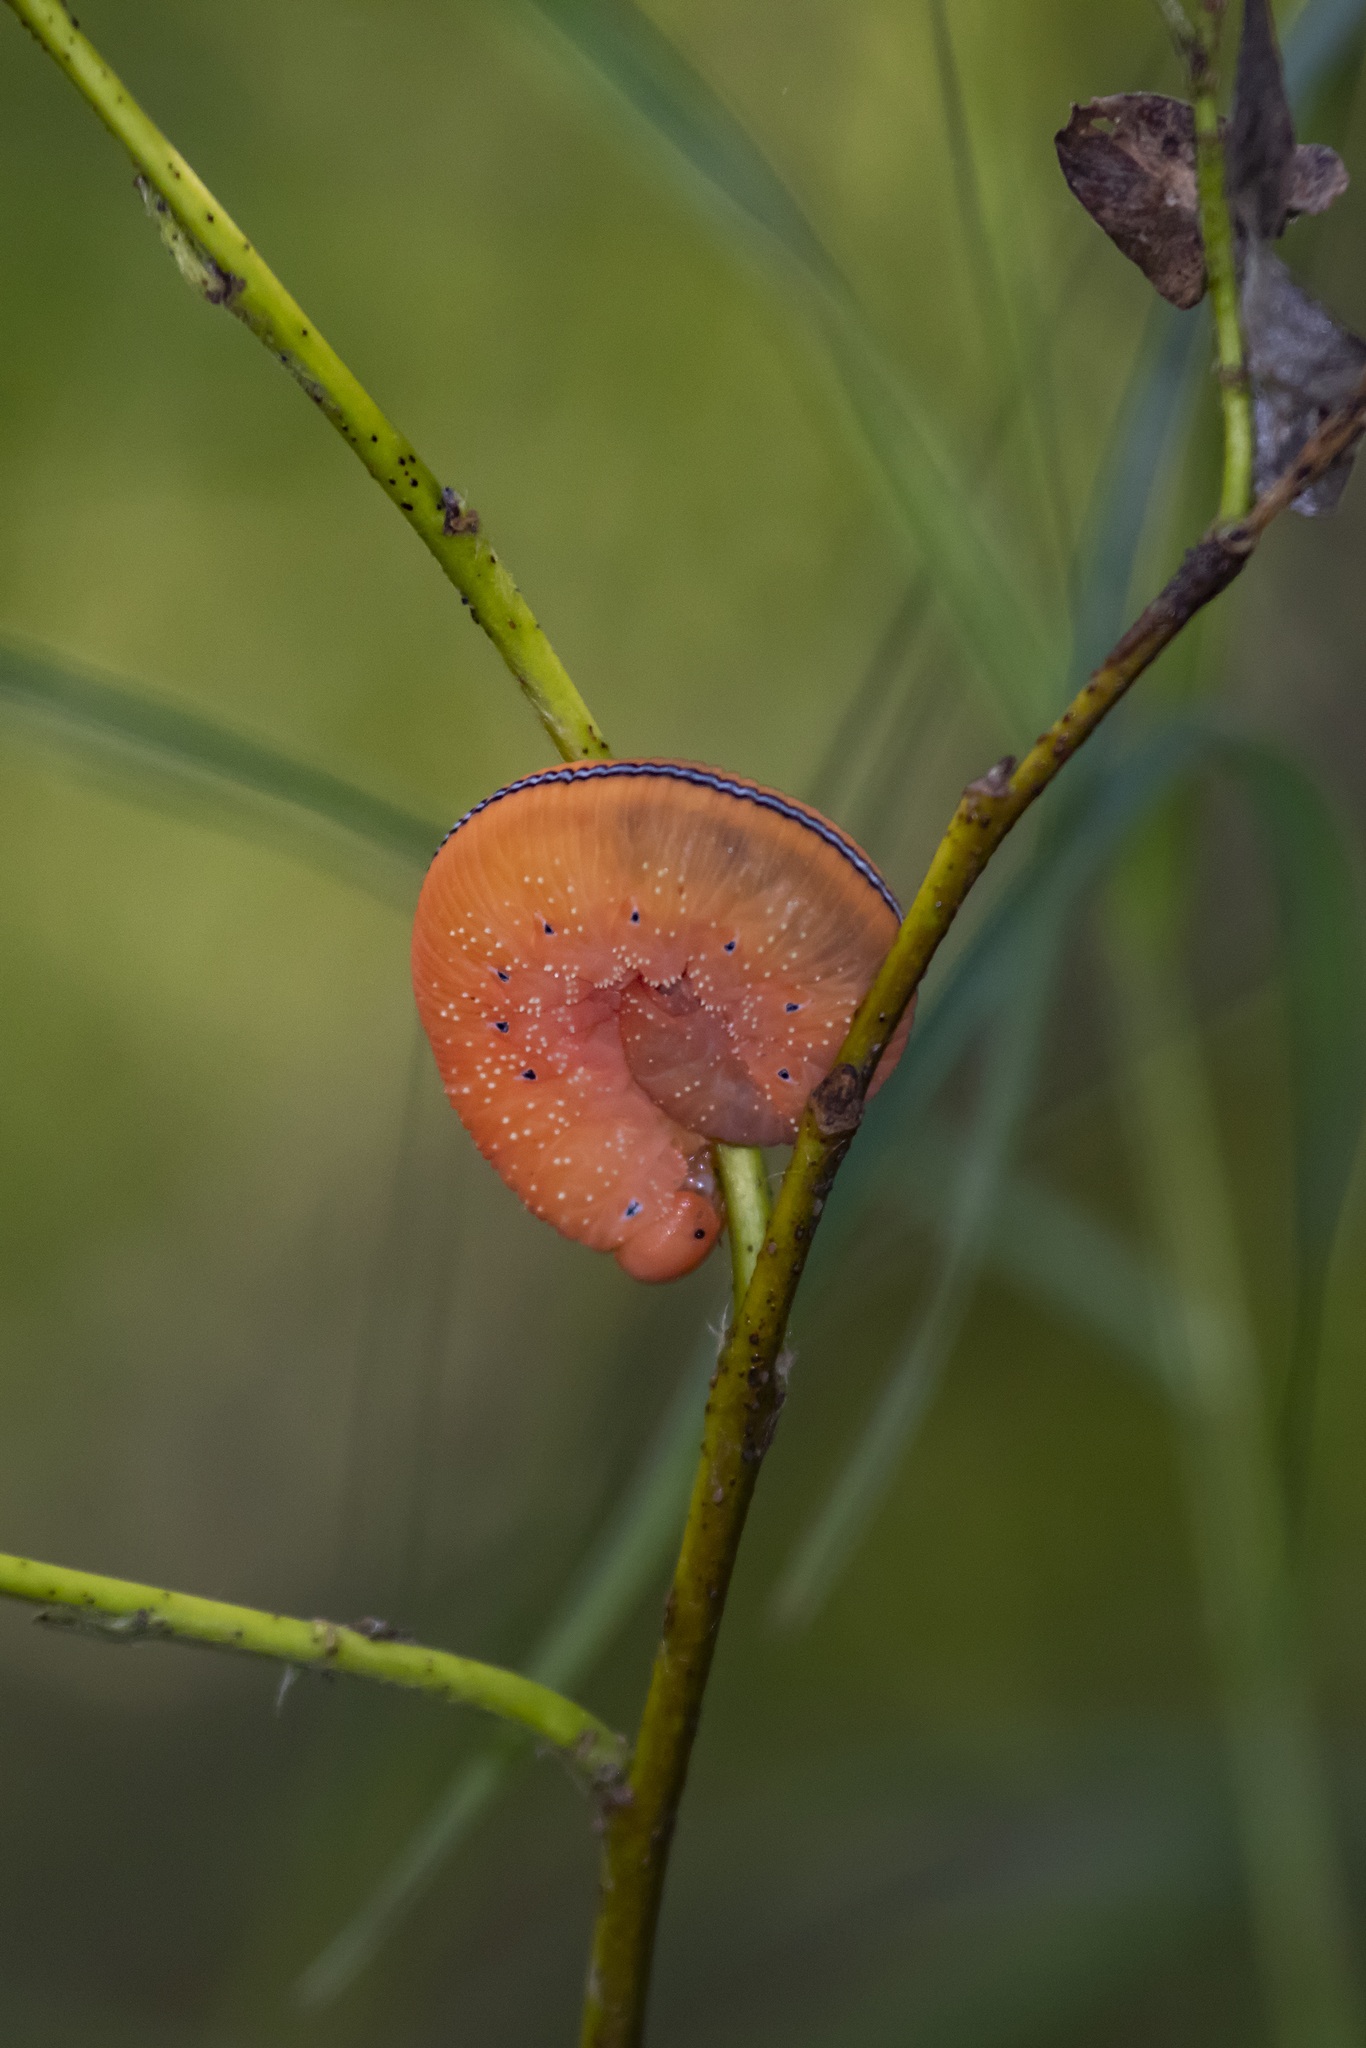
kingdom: Animalia
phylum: Arthropoda
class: Insecta
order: Hymenoptera
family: Cimbicidae
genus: Cimbex
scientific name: Cimbex luteus
